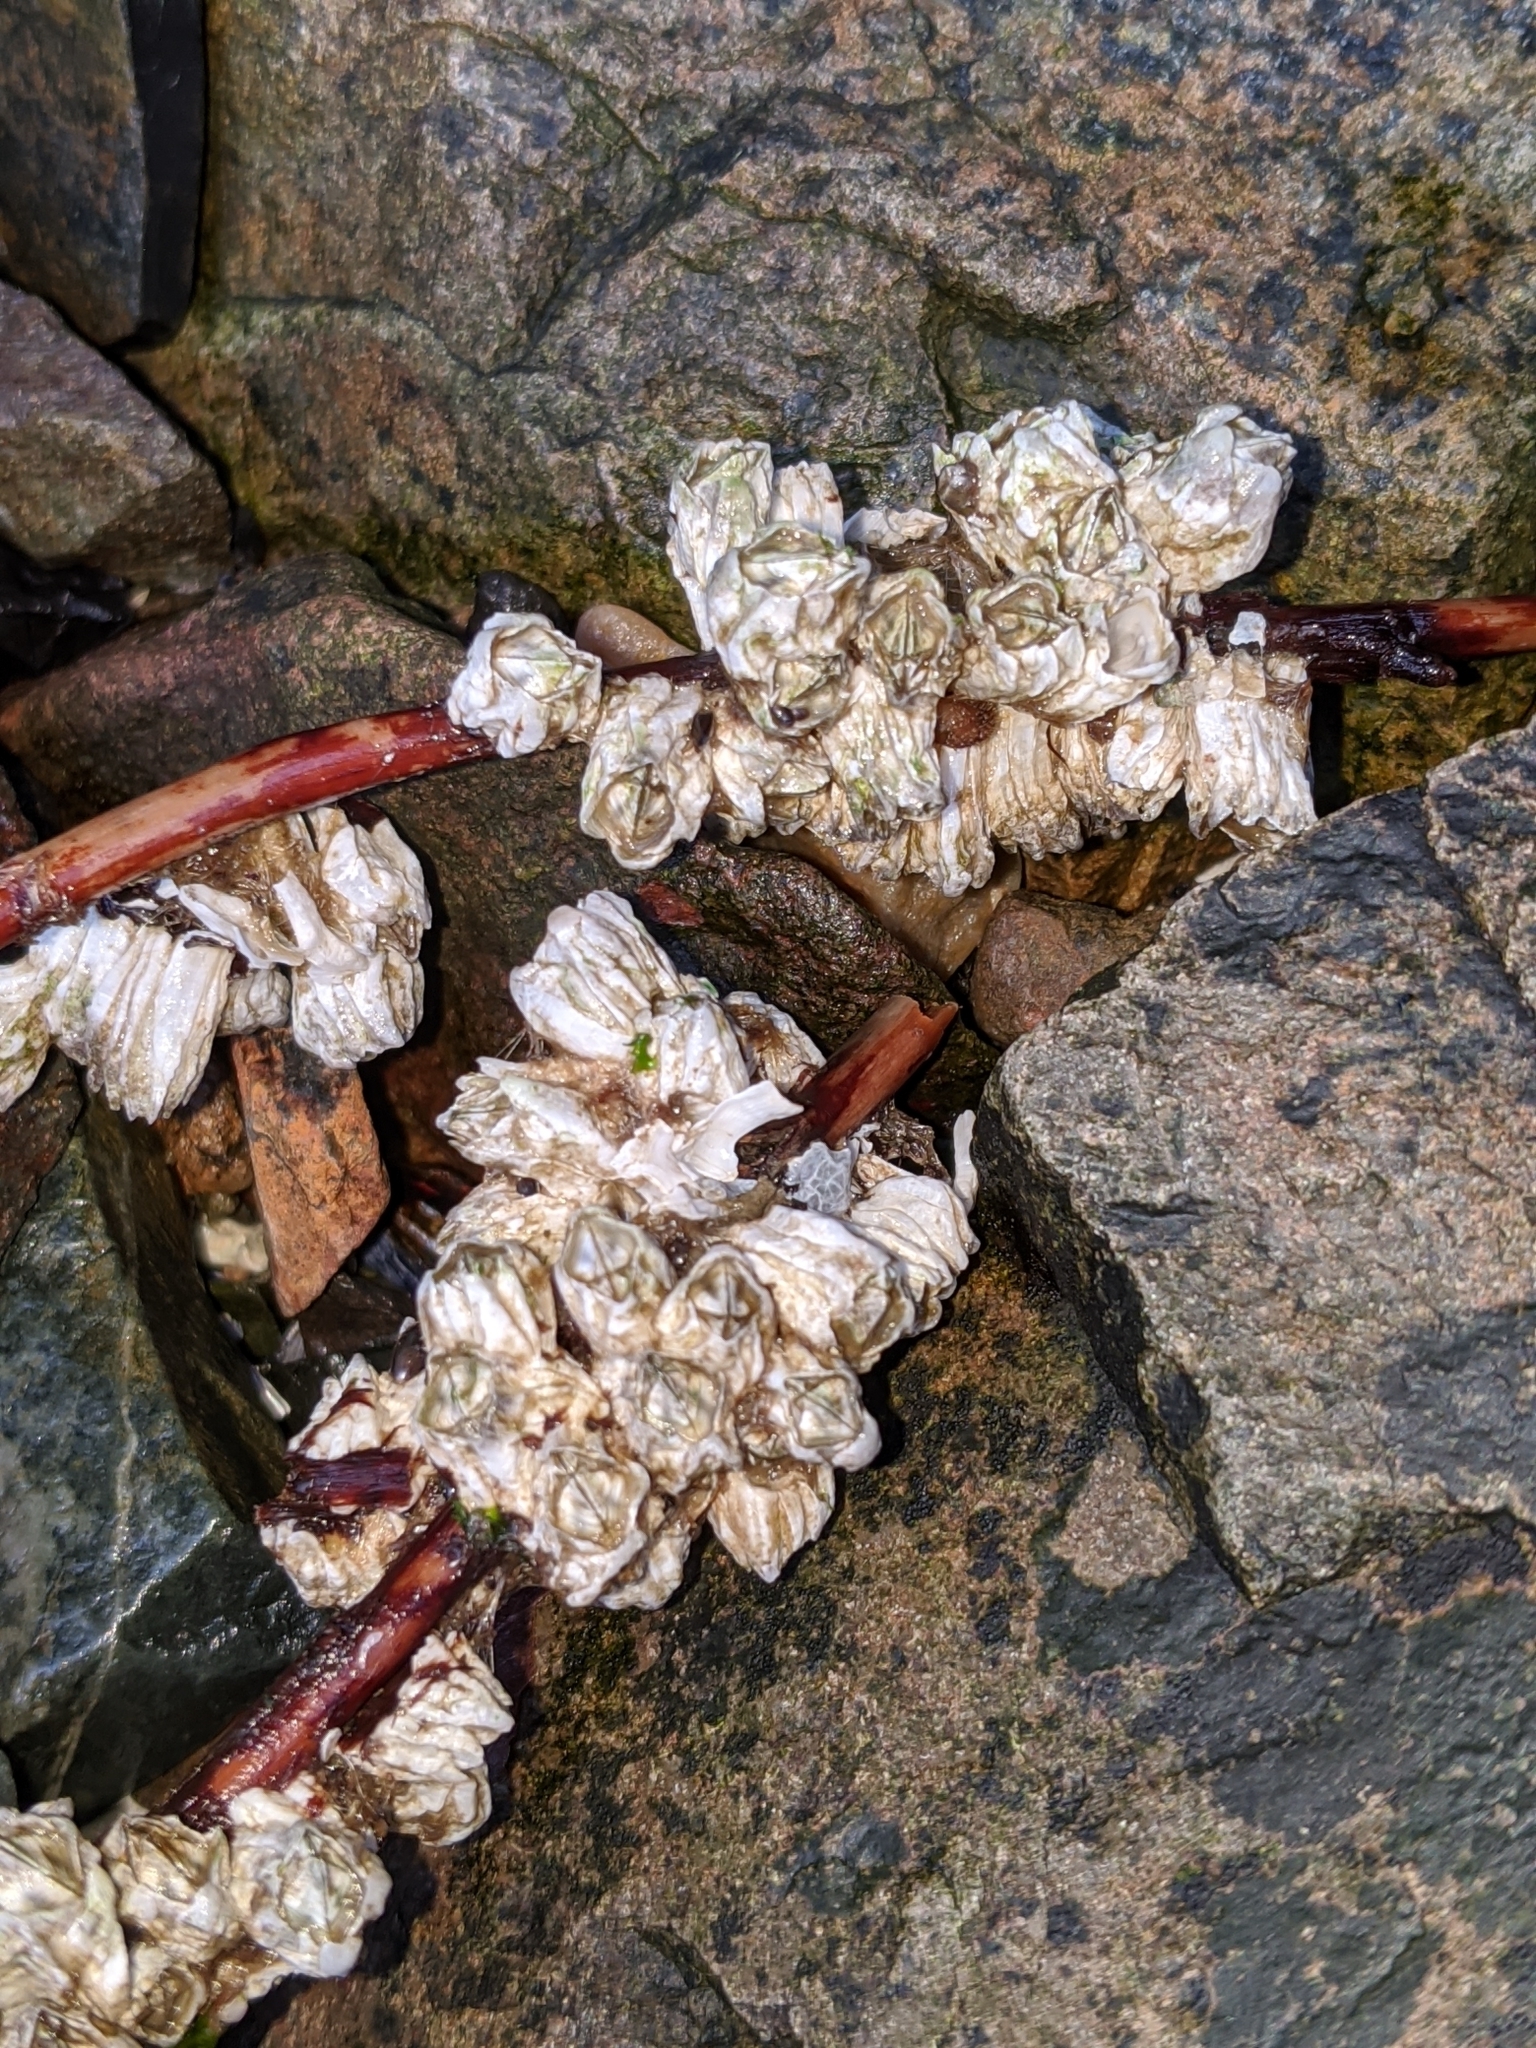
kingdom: Animalia
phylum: Arthropoda
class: Maxillopoda
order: Sessilia
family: Balanidae
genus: Balanus
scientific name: Balanus glandula
